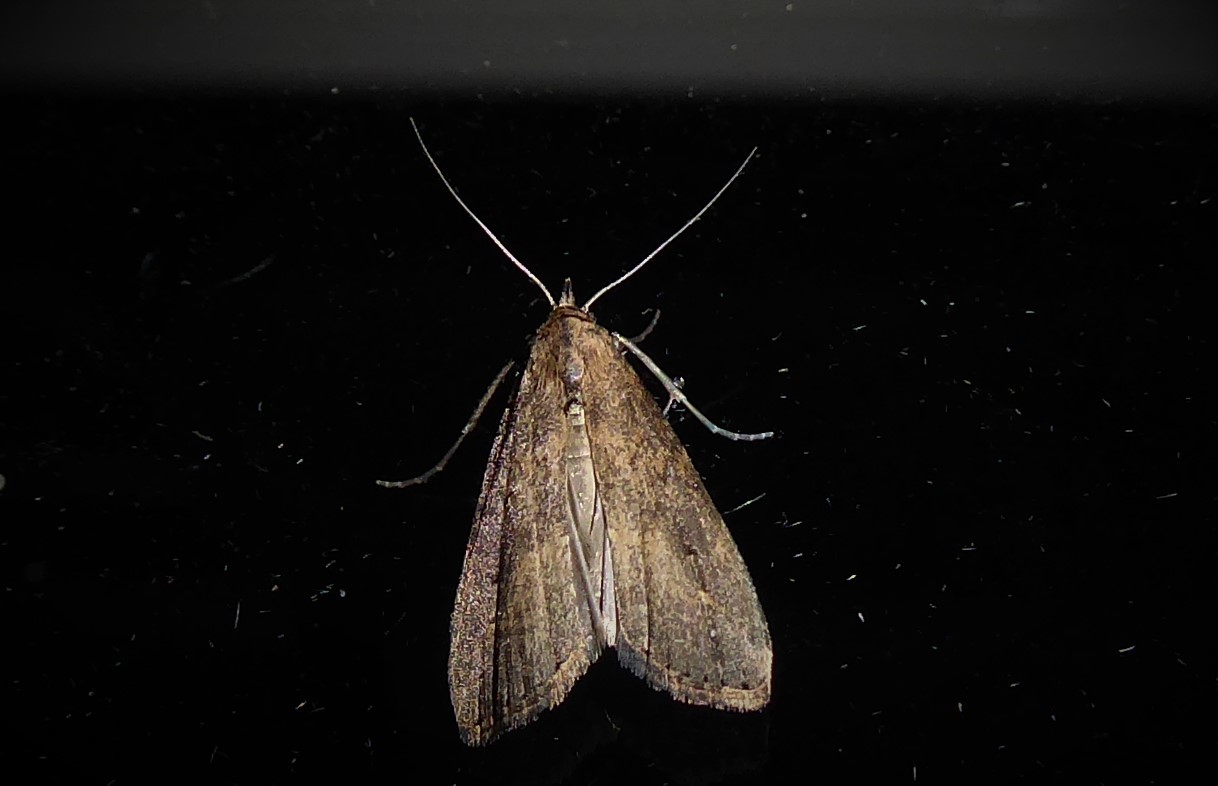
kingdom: Animalia
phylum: Arthropoda
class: Insecta
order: Lepidoptera
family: Erebidae
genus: Schrankia
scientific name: Schrankia costaestrigalis
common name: Pinion-streaked snout
